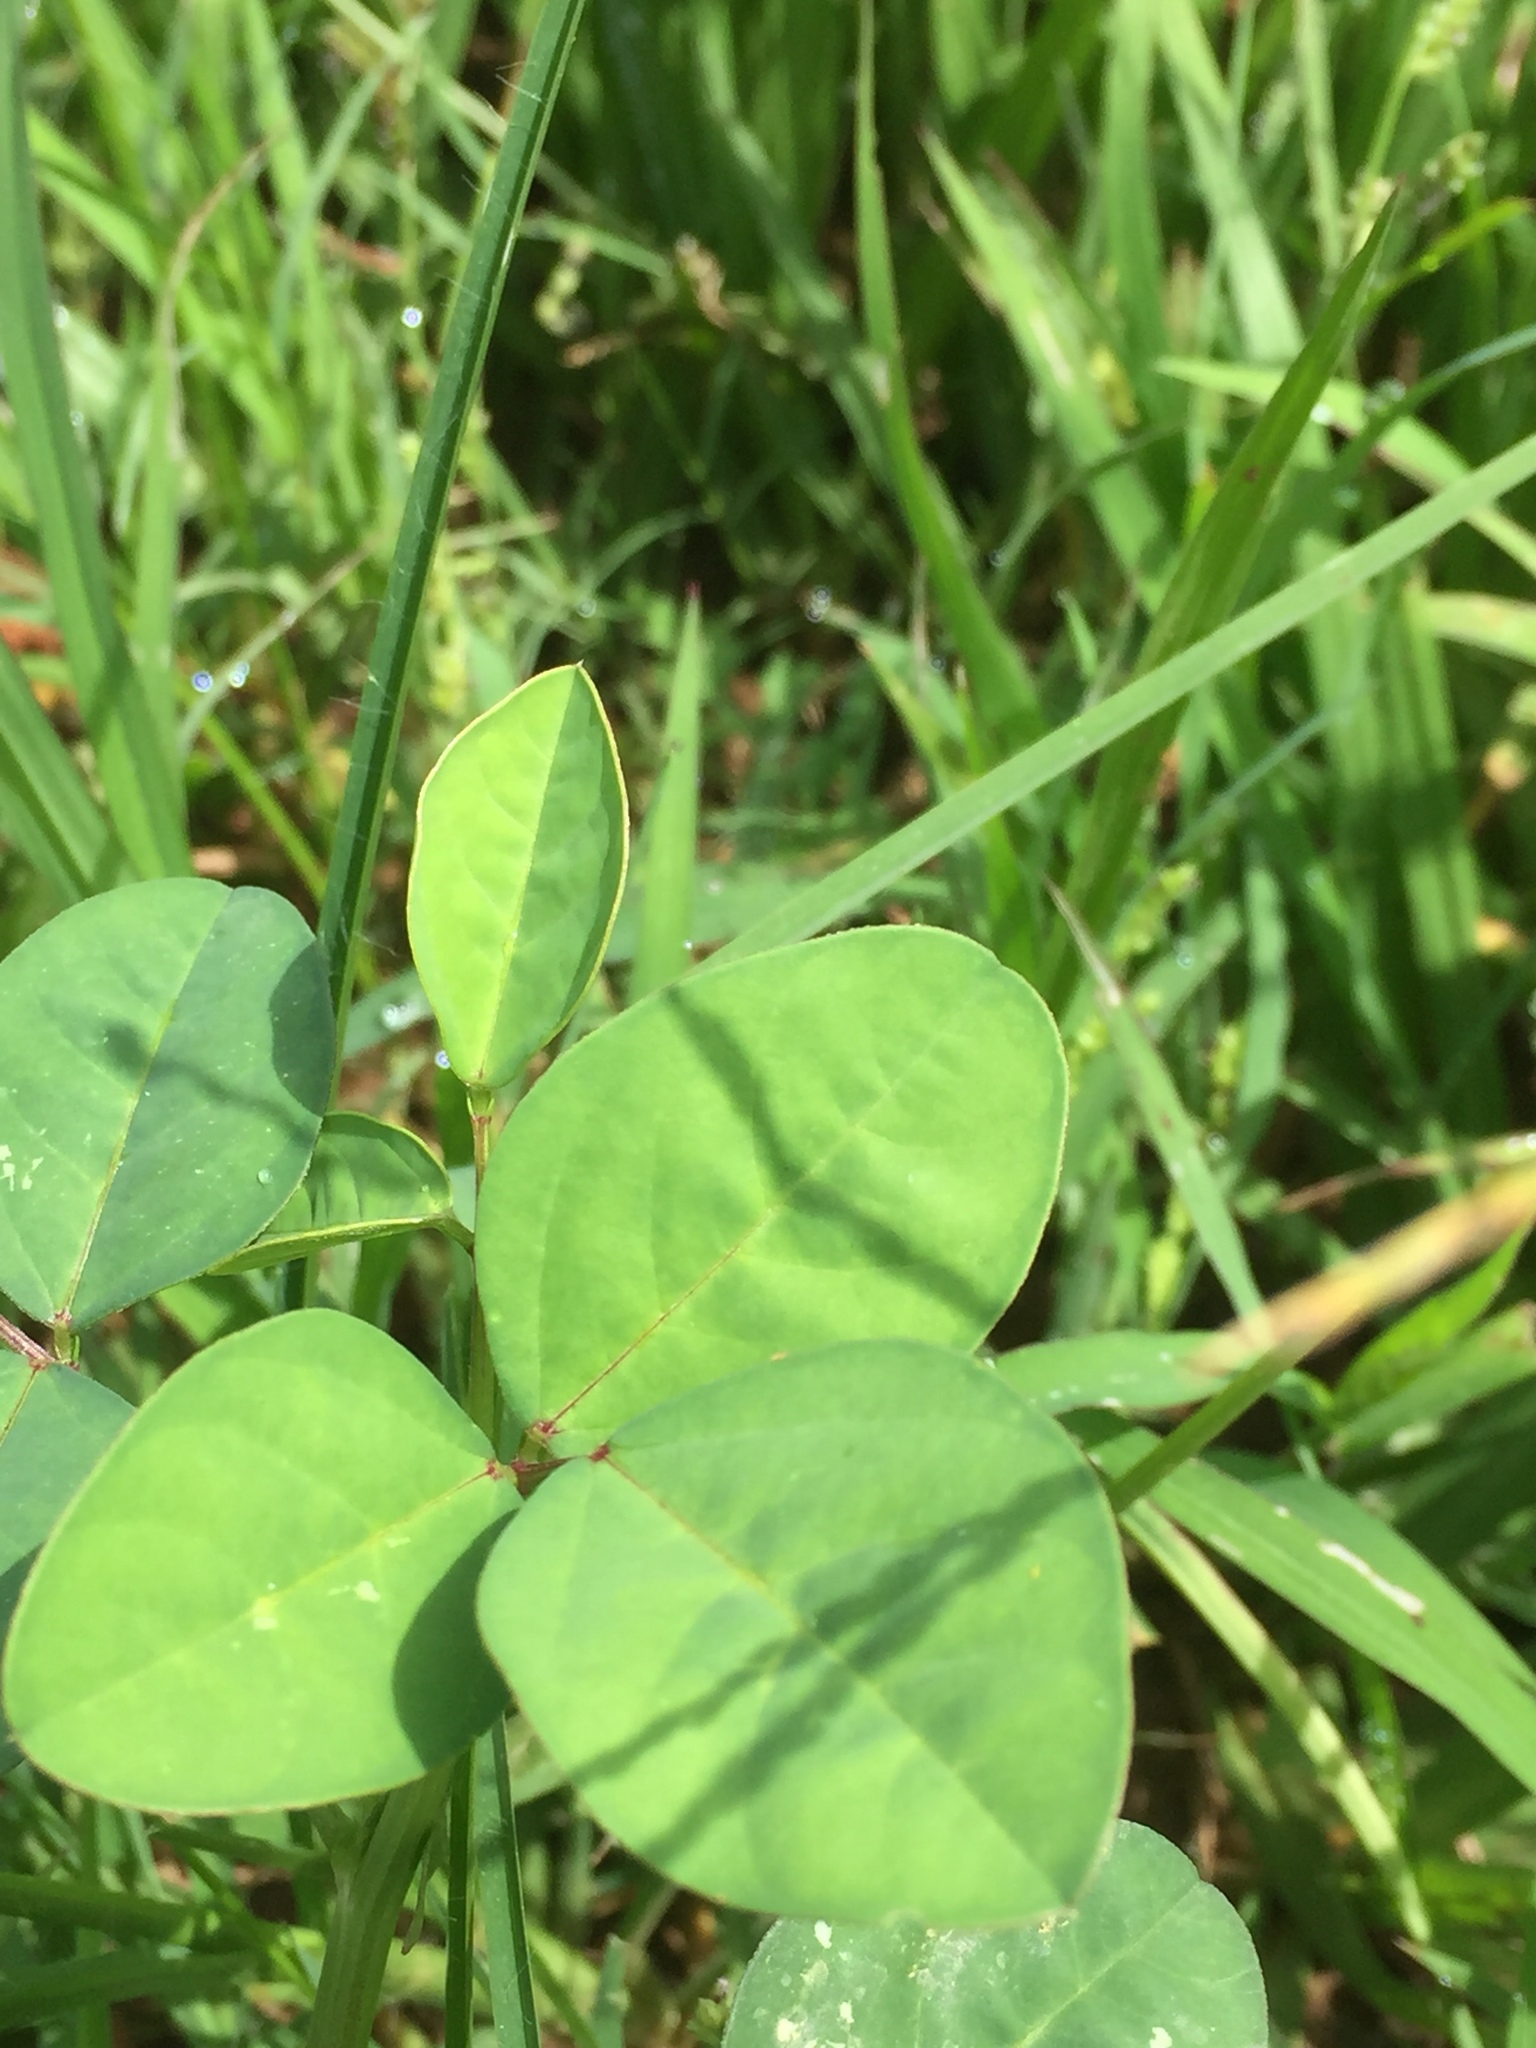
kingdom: Plantae
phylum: Tracheophyta
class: Magnoliopsida
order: Fabales
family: Fabaceae
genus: Macroptilium
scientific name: Macroptilium lathyroides
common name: Wild bushbean
